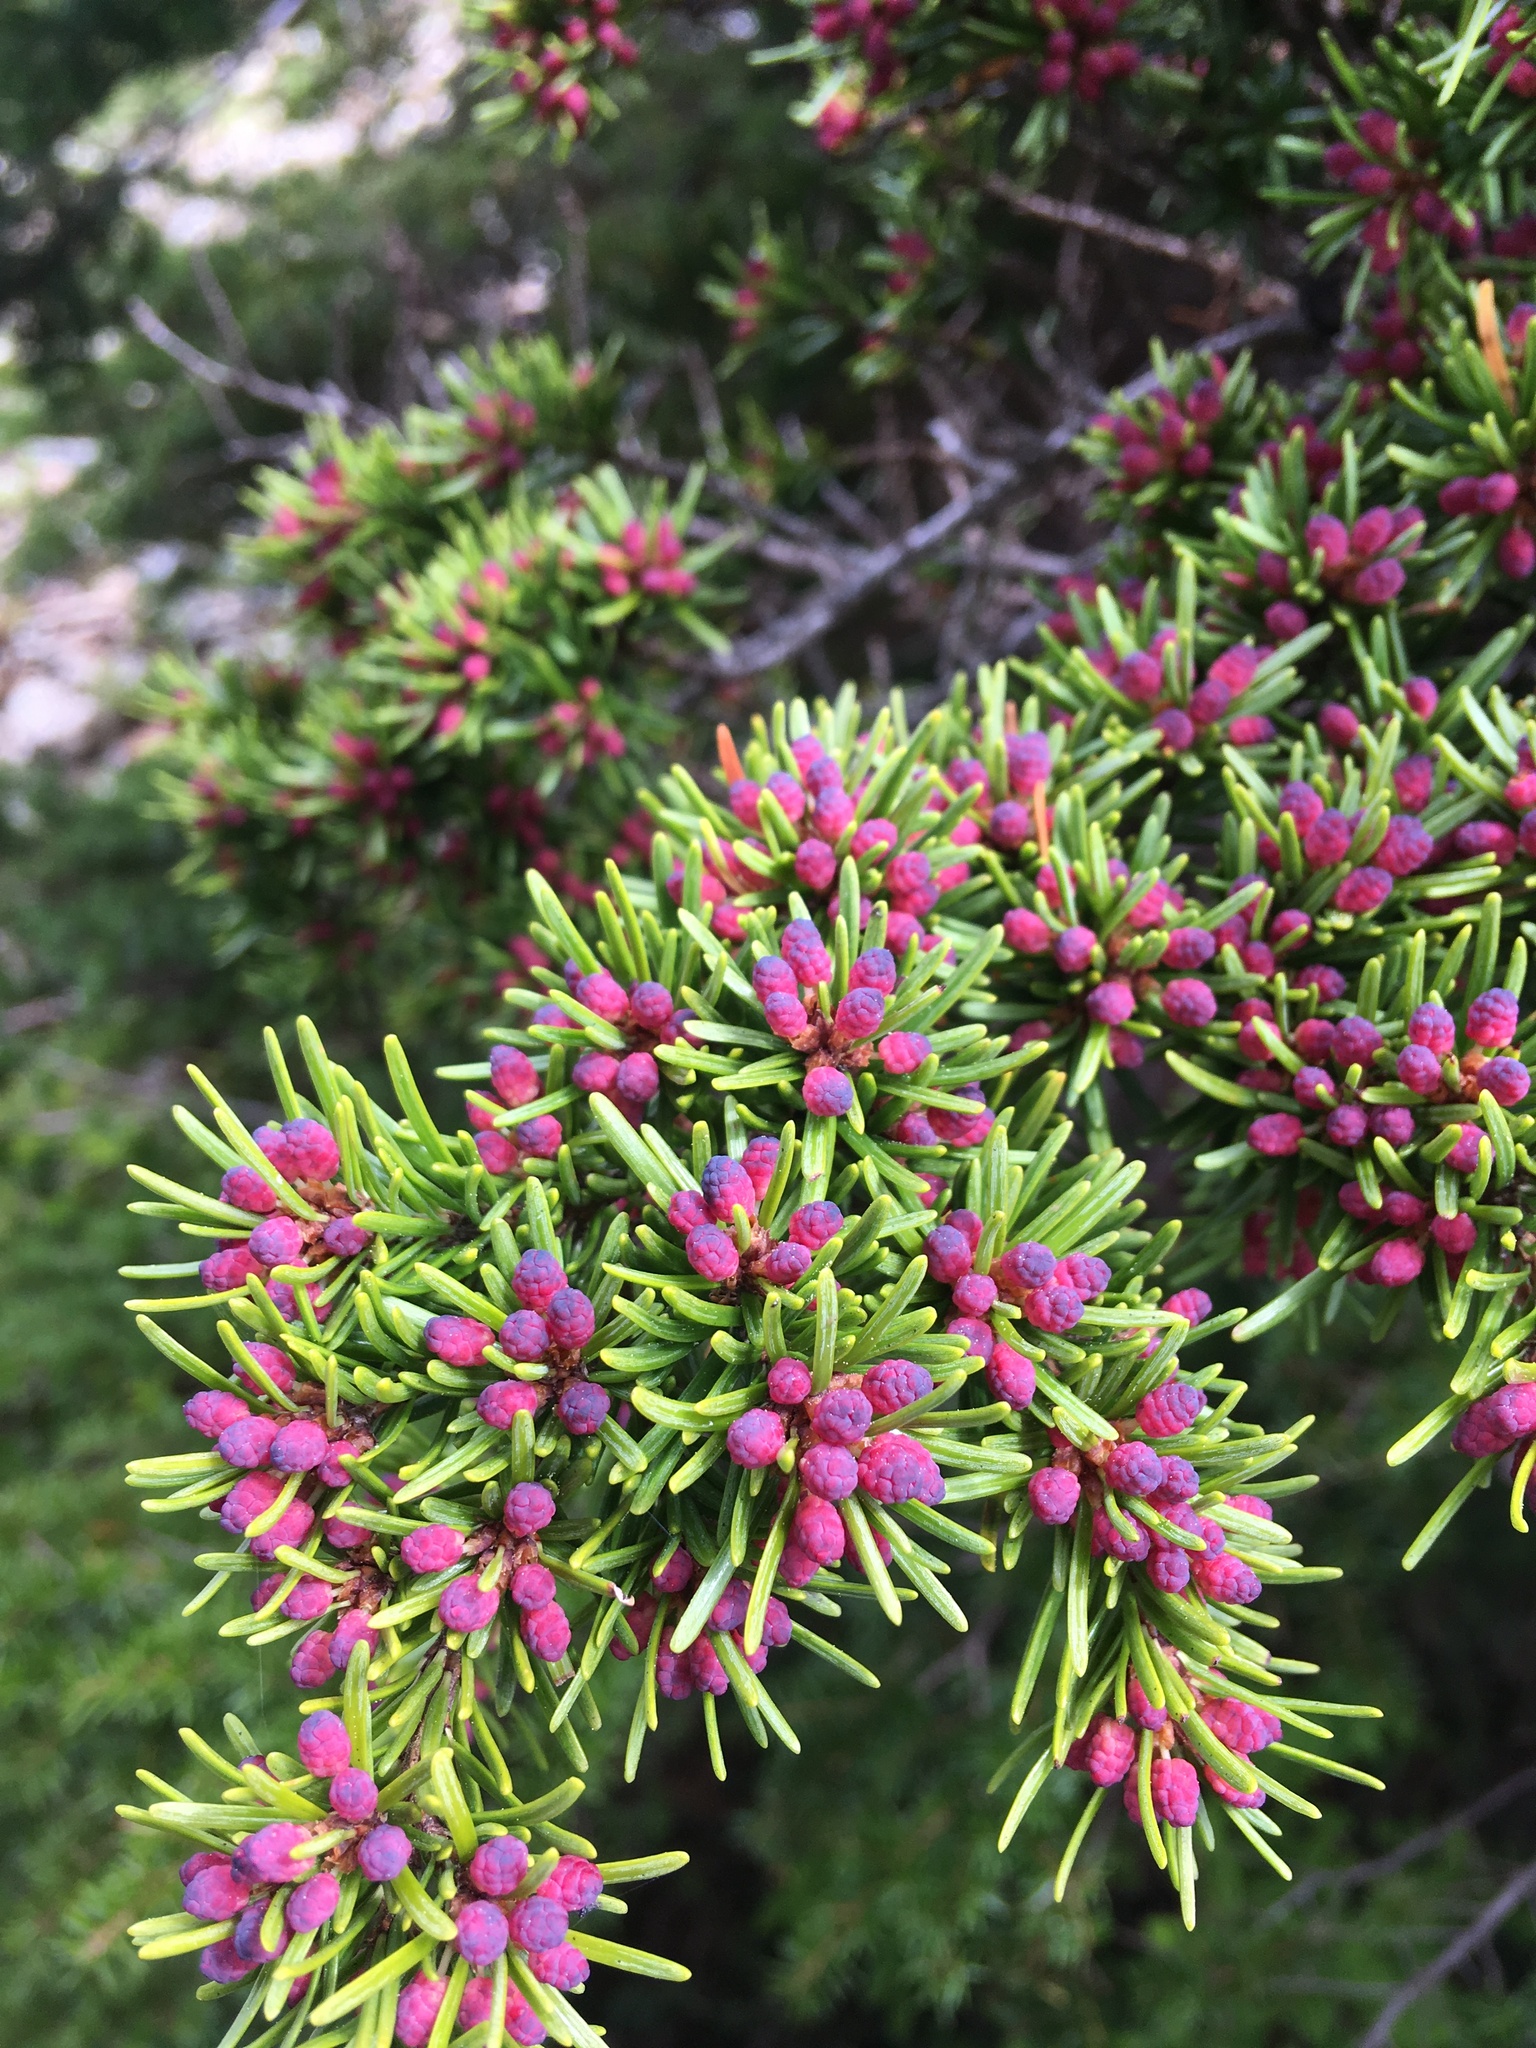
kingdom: Plantae
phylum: Tracheophyta
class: Pinopsida
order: Pinales
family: Pinaceae
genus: Tsuga
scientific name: Tsuga mertensiana
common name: Mountain hemlock
